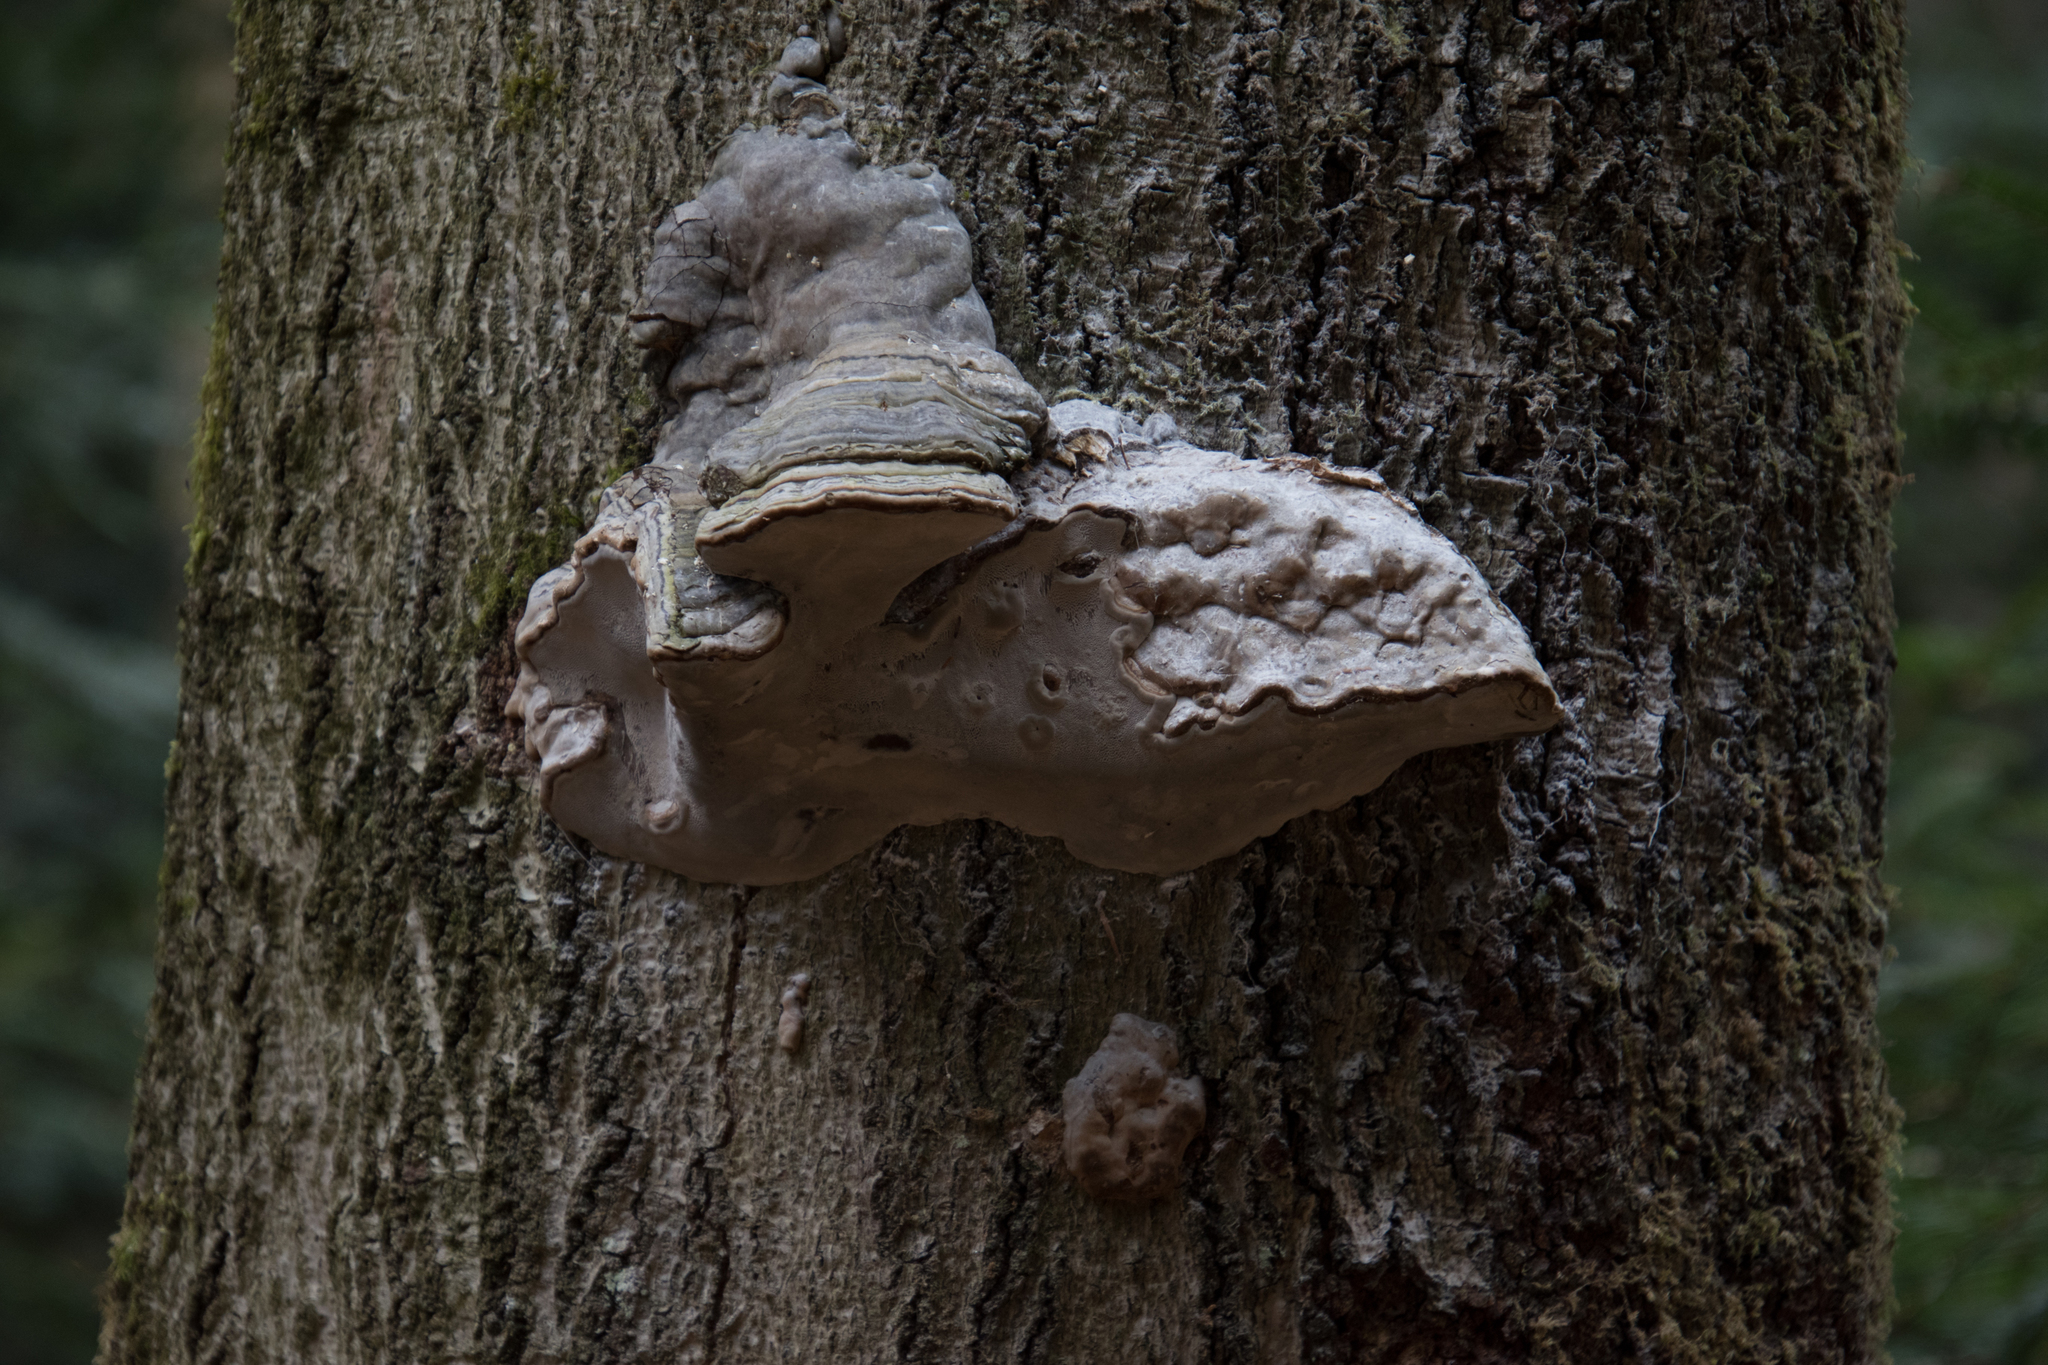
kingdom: Fungi
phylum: Basidiomycota
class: Agaricomycetes
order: Polyporales
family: Polyporaceae
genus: Fomes
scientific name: Fomes fomentarius
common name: Hoof fungus
